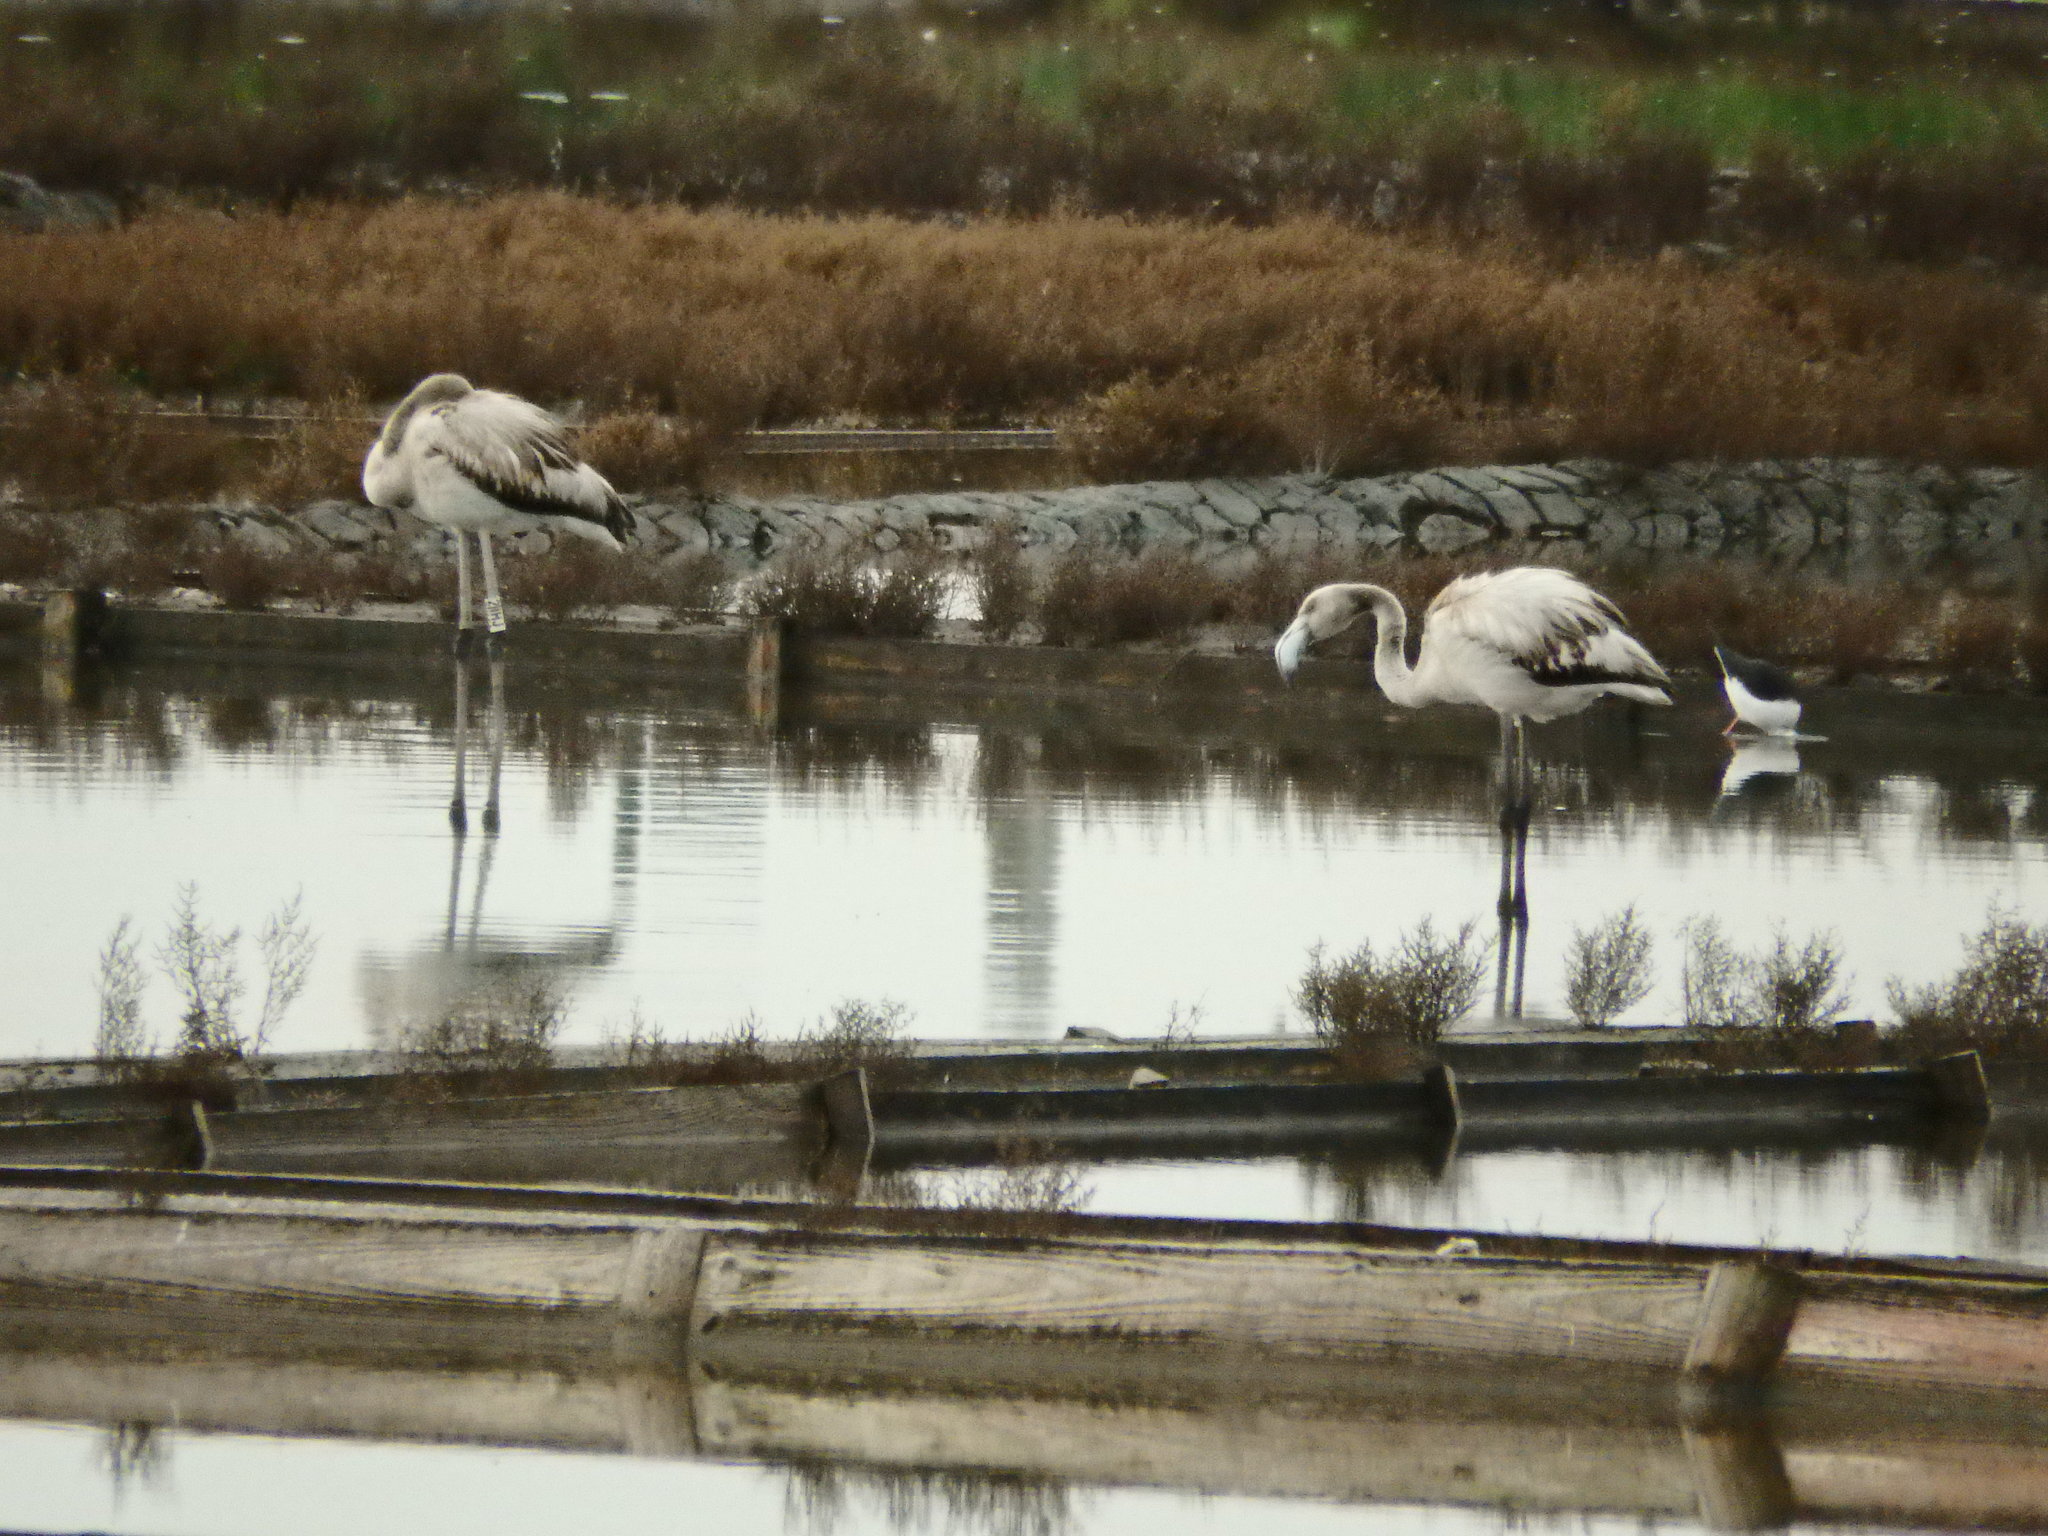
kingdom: Animalia
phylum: Chordata
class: Aves
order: Phoenicopteriformes
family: Phoenicopteridae
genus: Phoenicopterus
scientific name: Phoenicopterus roseus
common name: Greater flamingo
